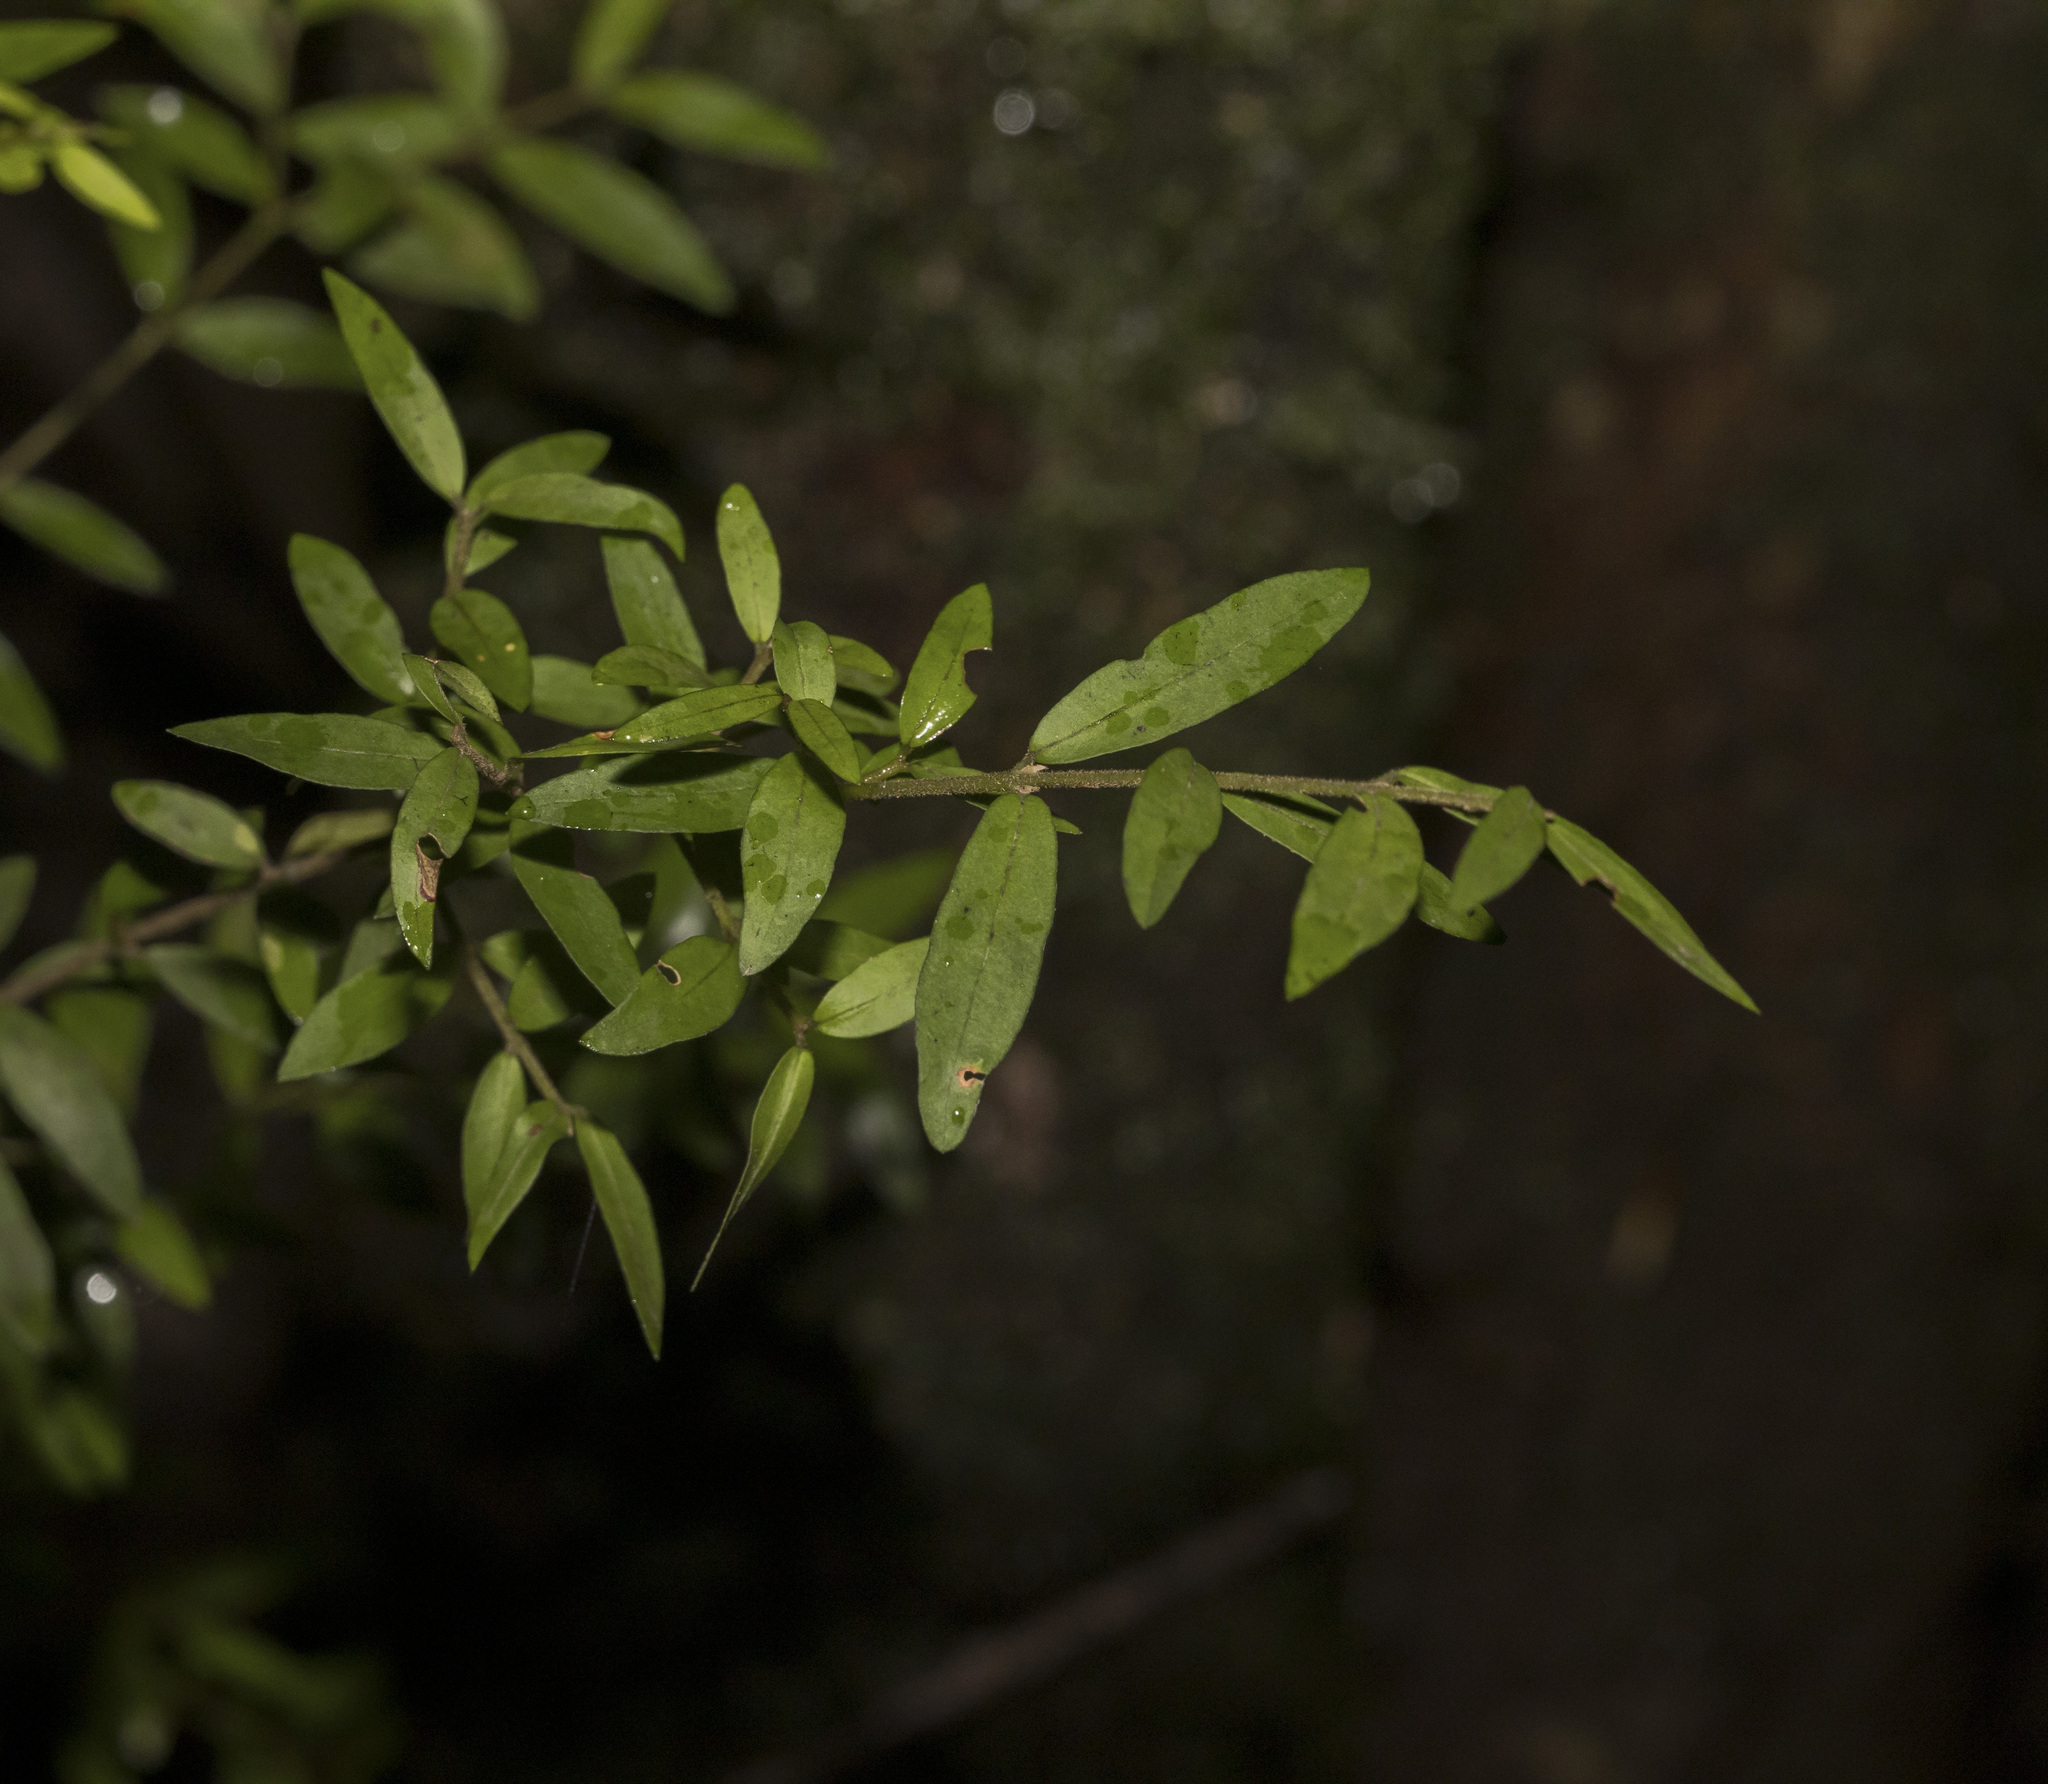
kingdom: Plantae
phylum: Tracheophyta
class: Magnoliopsida
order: Myrtales
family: Myrtaceae
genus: Myrceugenia
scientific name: Myrceugenia parvifolia
